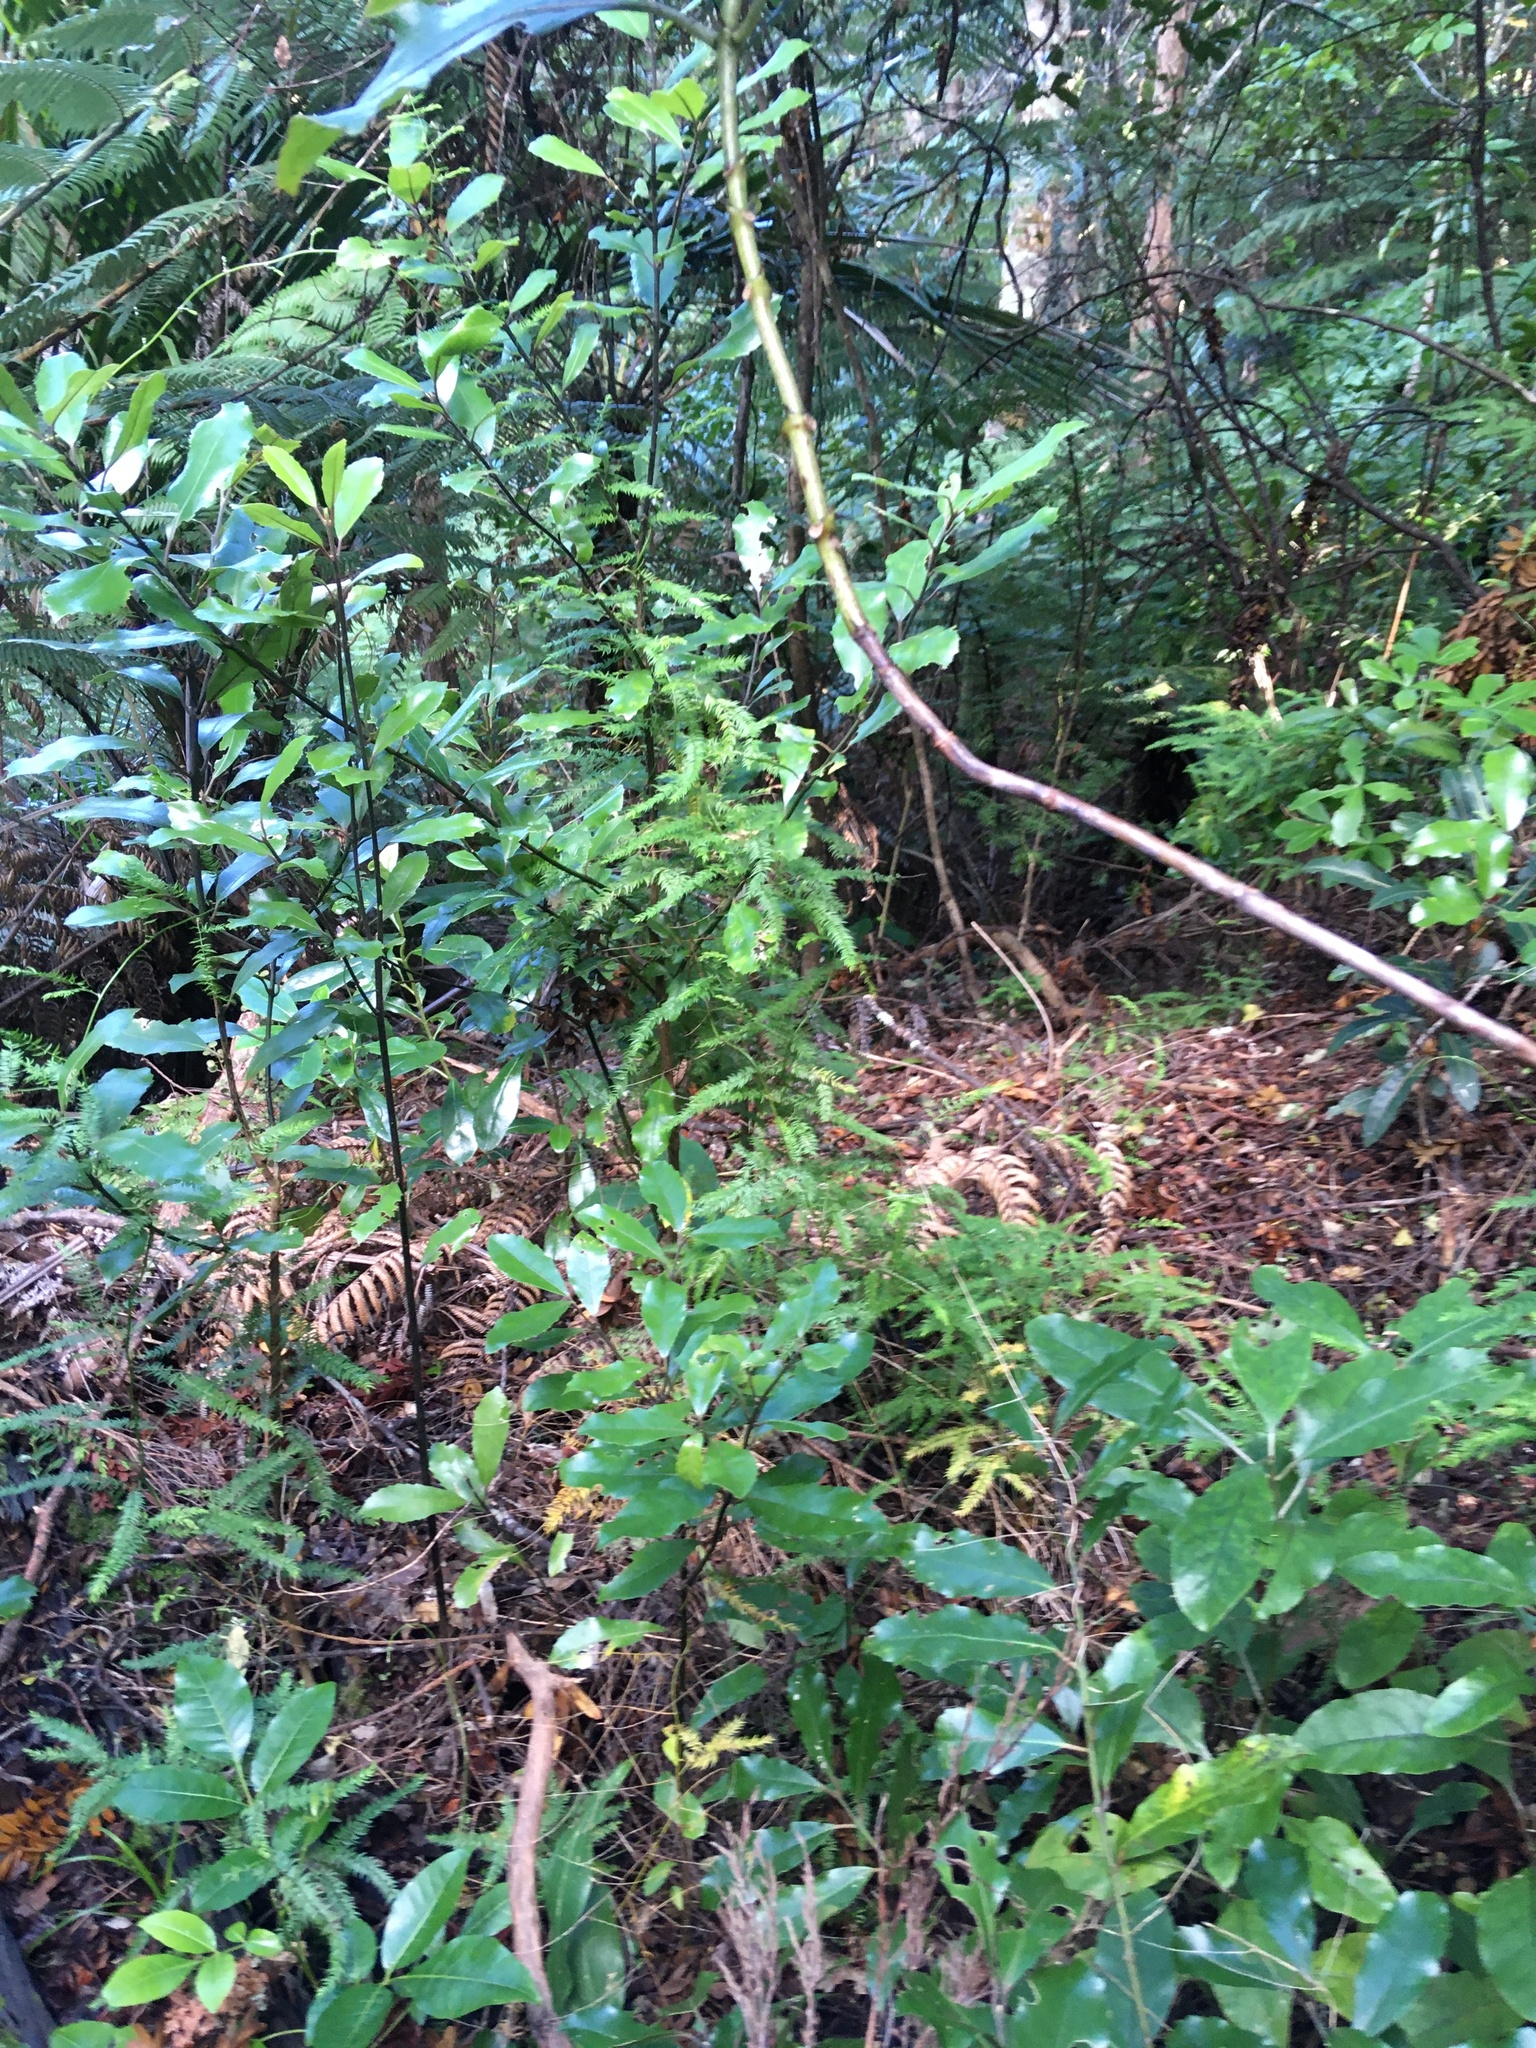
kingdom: Plantae
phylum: Tracheophyta
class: Magnoliopsida
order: Laurales
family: Monimiaceae
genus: Hedycarya
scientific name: Hedycarya arborea
